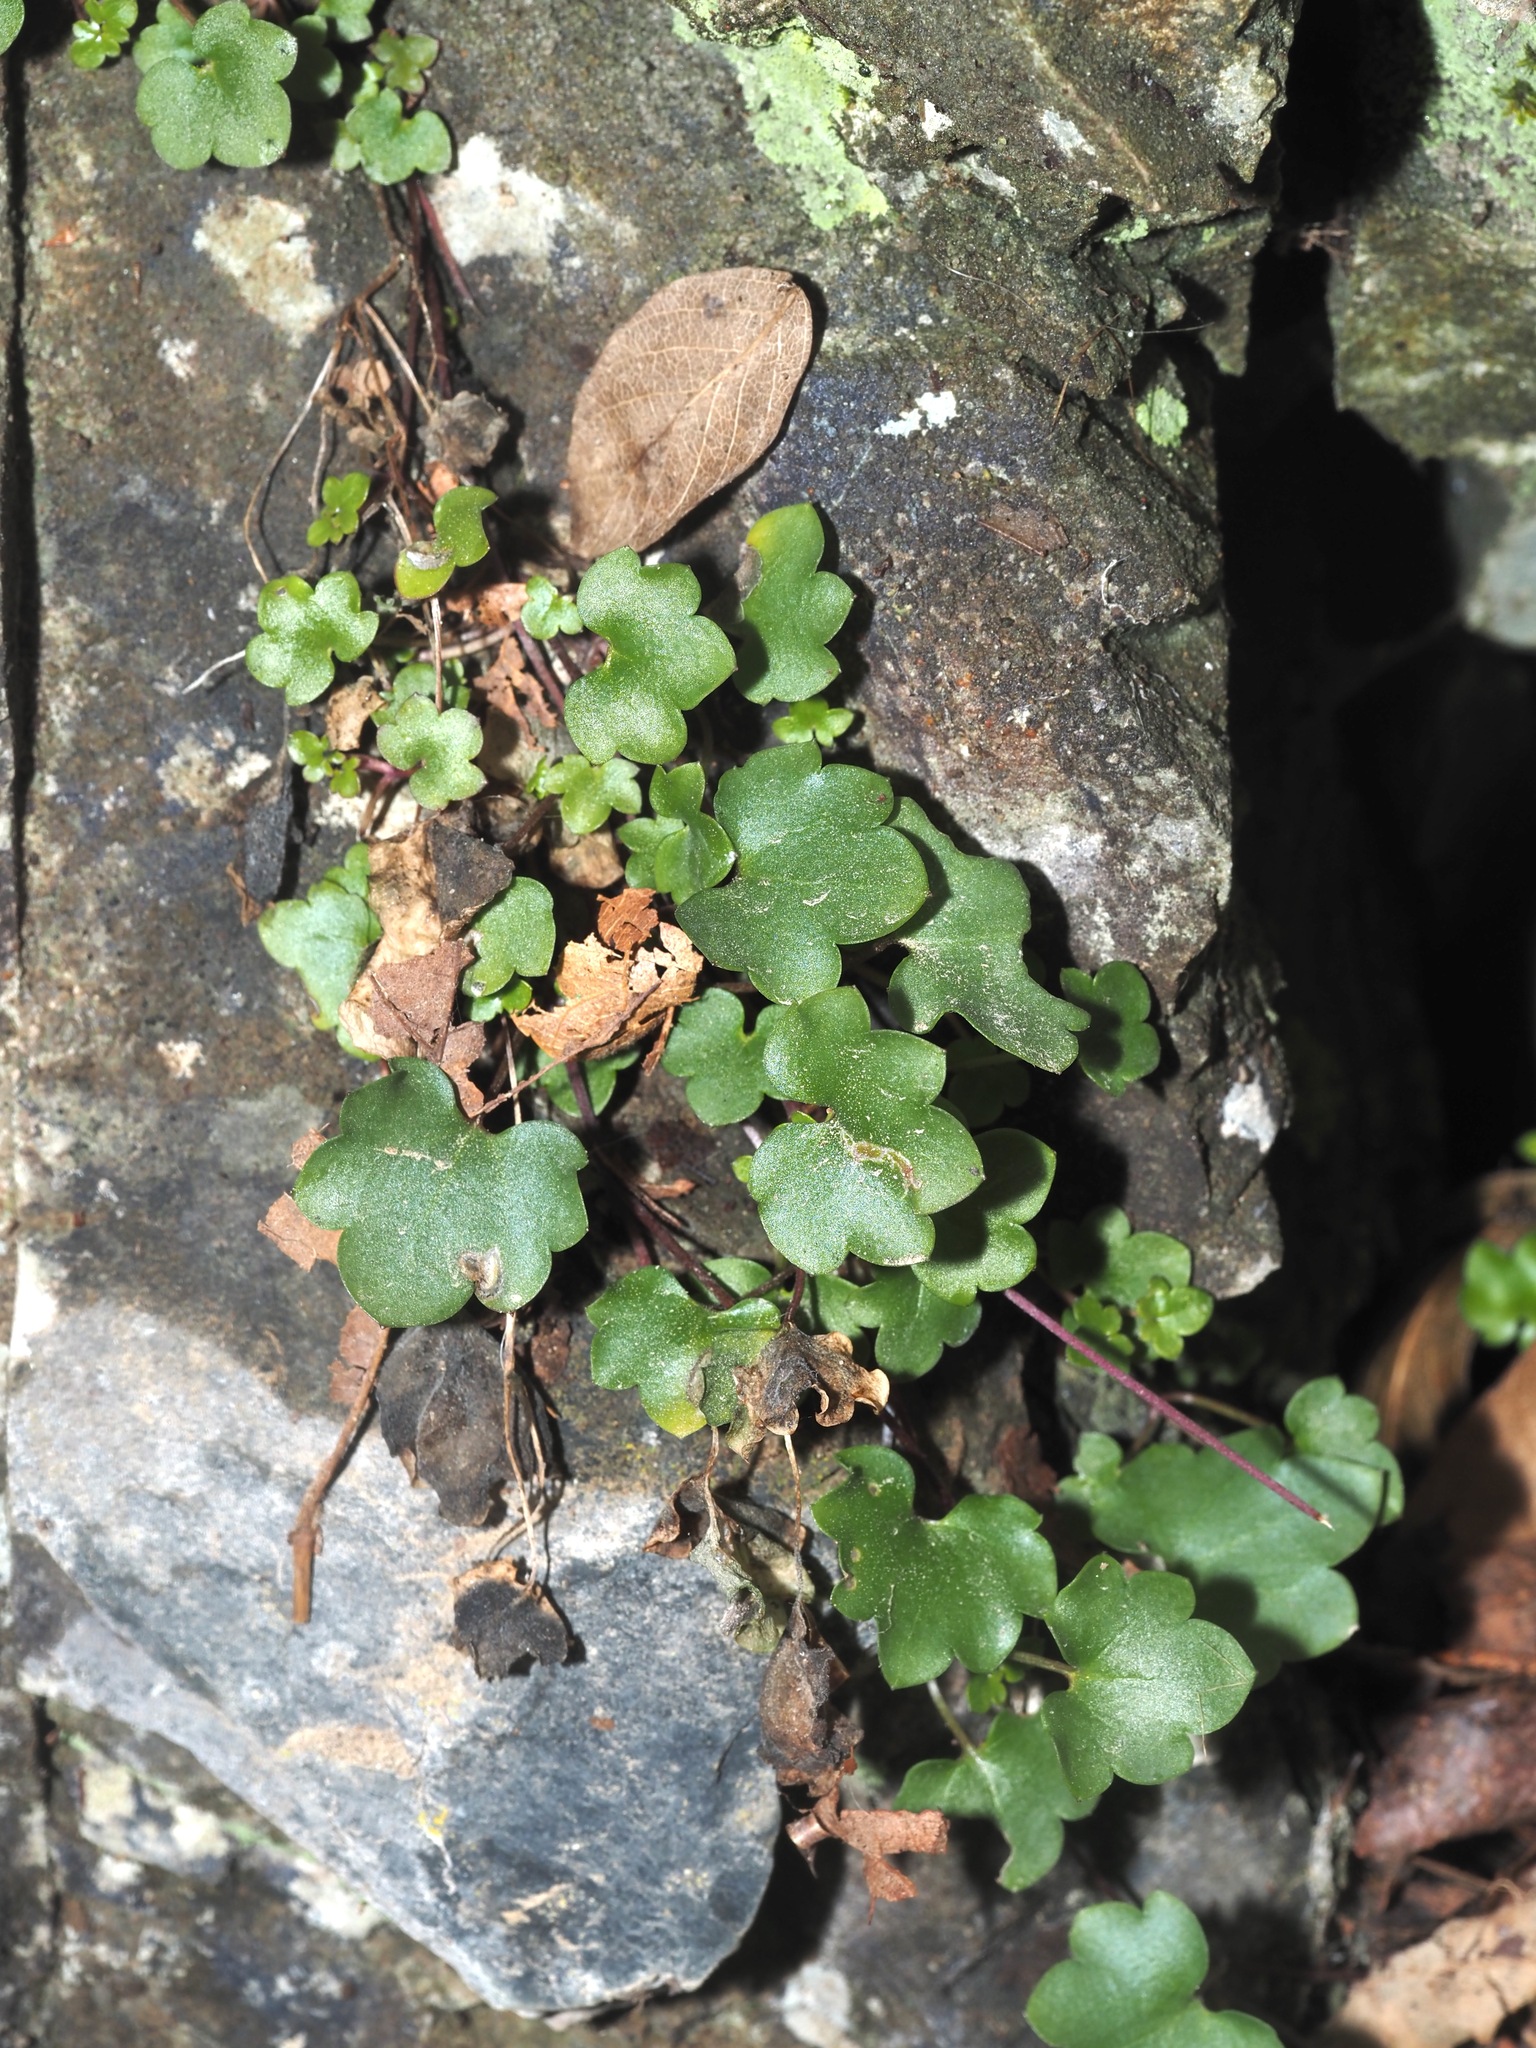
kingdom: Plantae
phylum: Tracheophyta
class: Magnoliopsida
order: Lamiales
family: Plantaginaceae
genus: Cymbalaria
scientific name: Cymbalaria muralis
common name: Ivy-leaved toadflax
